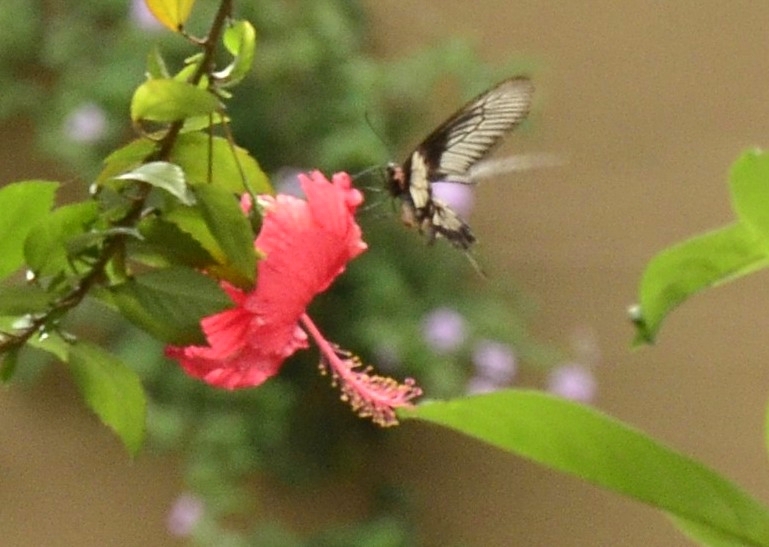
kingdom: Animalia
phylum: Arthropoda
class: Insecta
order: Lepidoptera
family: Papilionidae
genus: Pachliopta
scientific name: Pachliopta pandiyana
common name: Malabar rose
